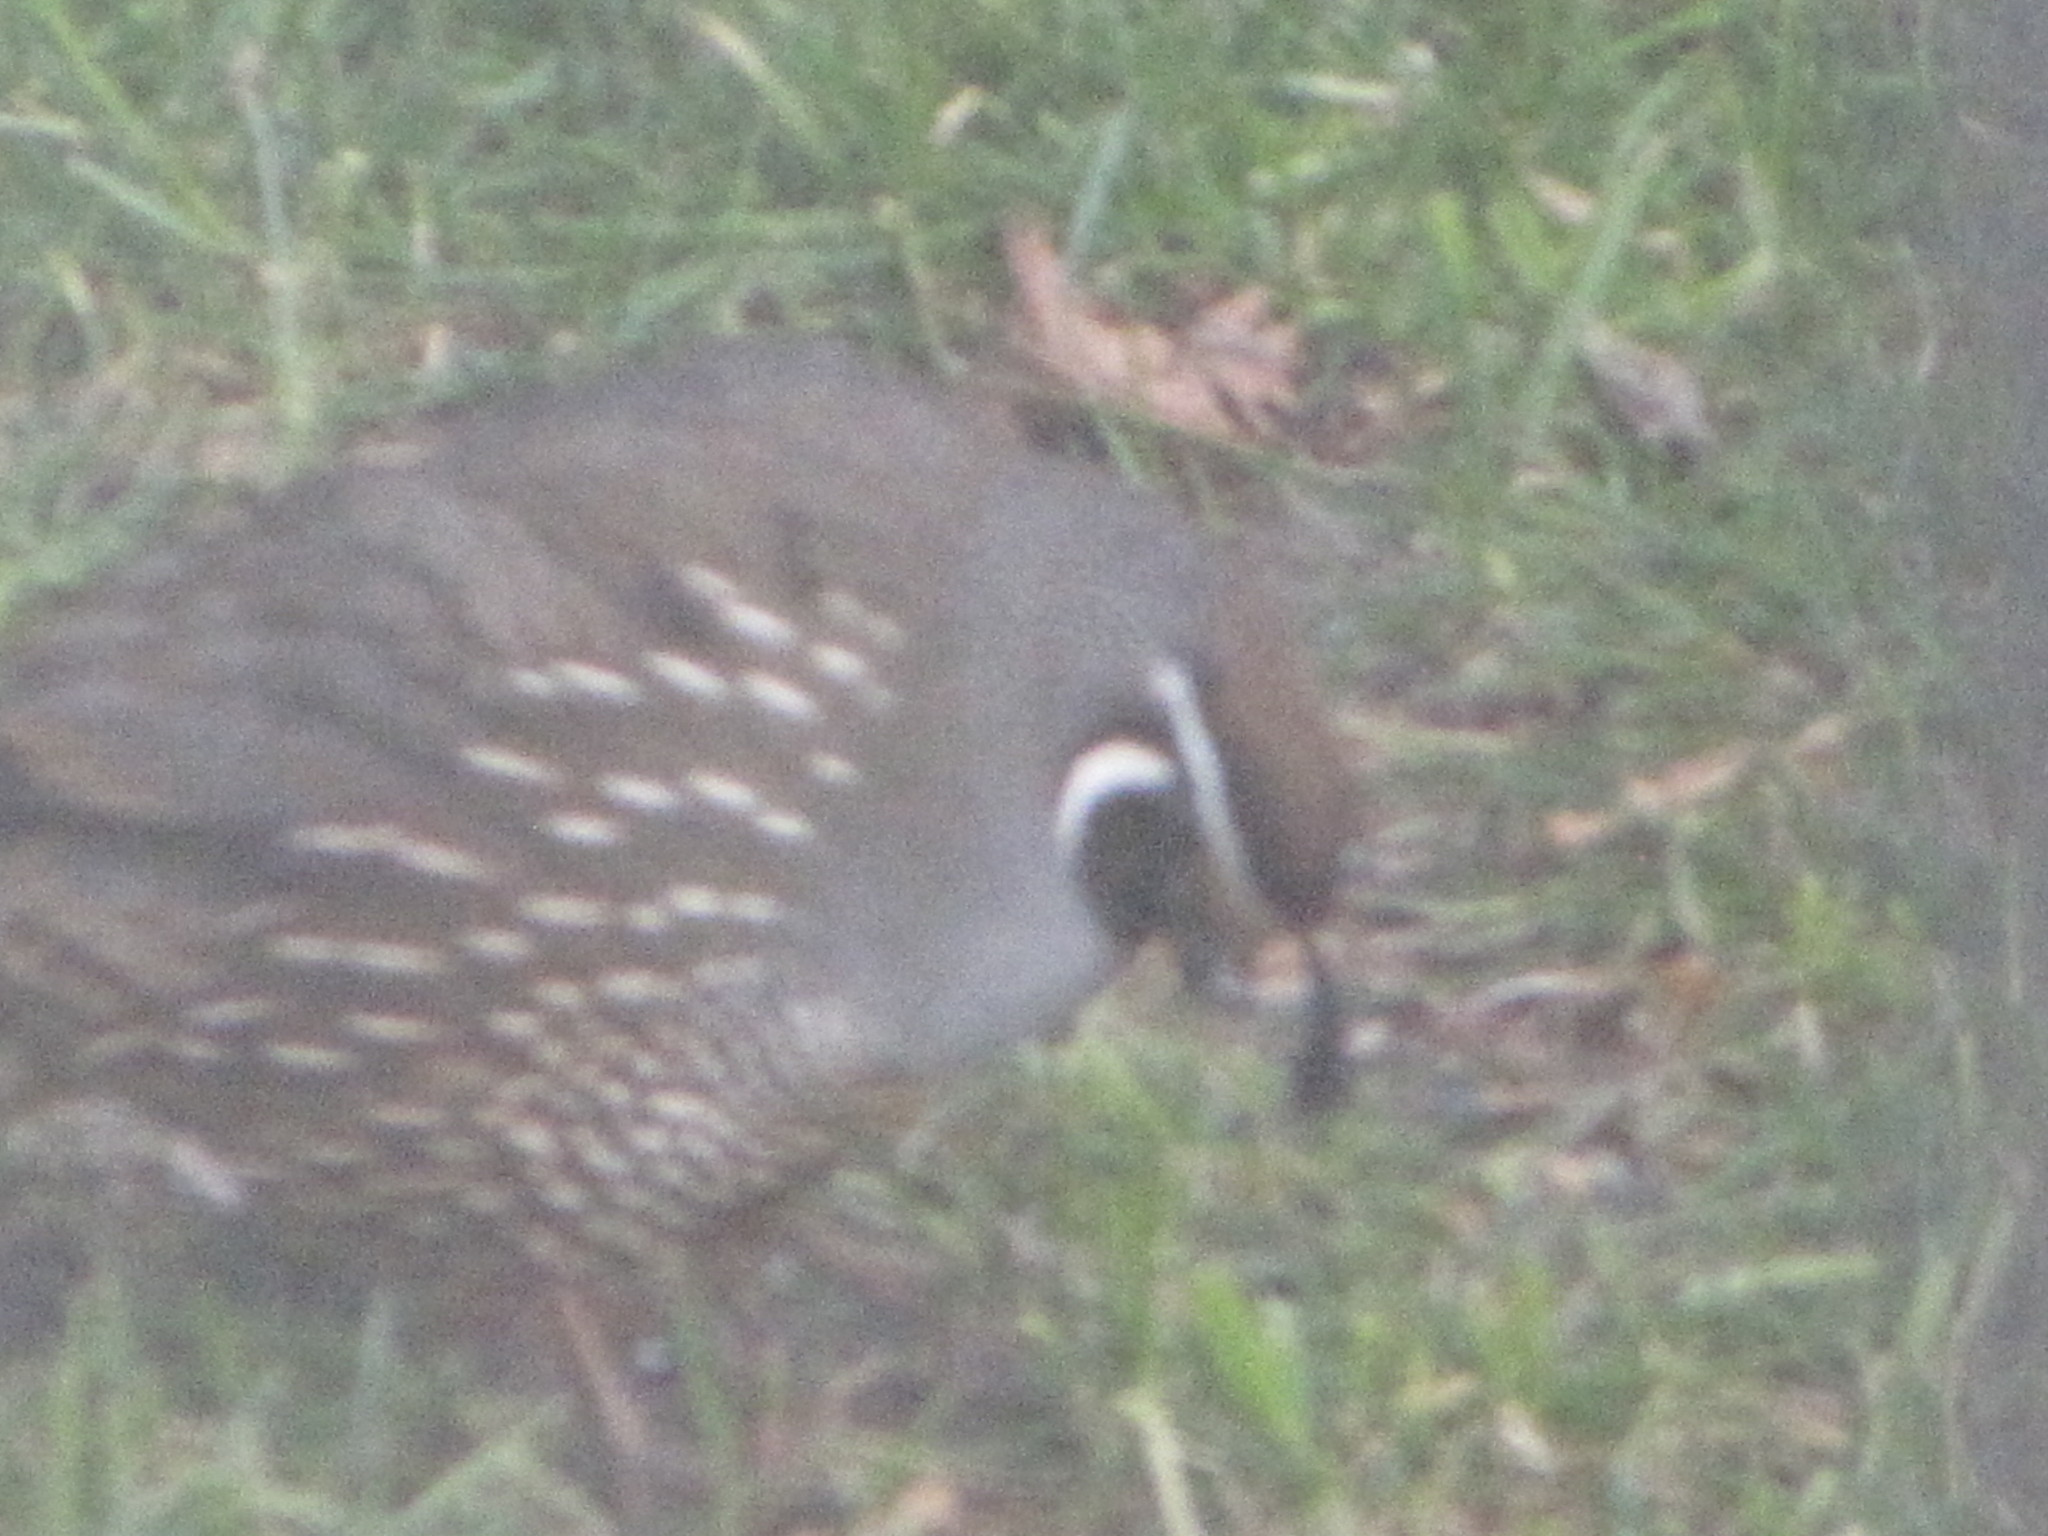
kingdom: Animalia
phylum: Chordata
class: Aves
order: Galliformes
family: Odontophoridae
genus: Callipepla
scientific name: Callipepla californica
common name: California quail
